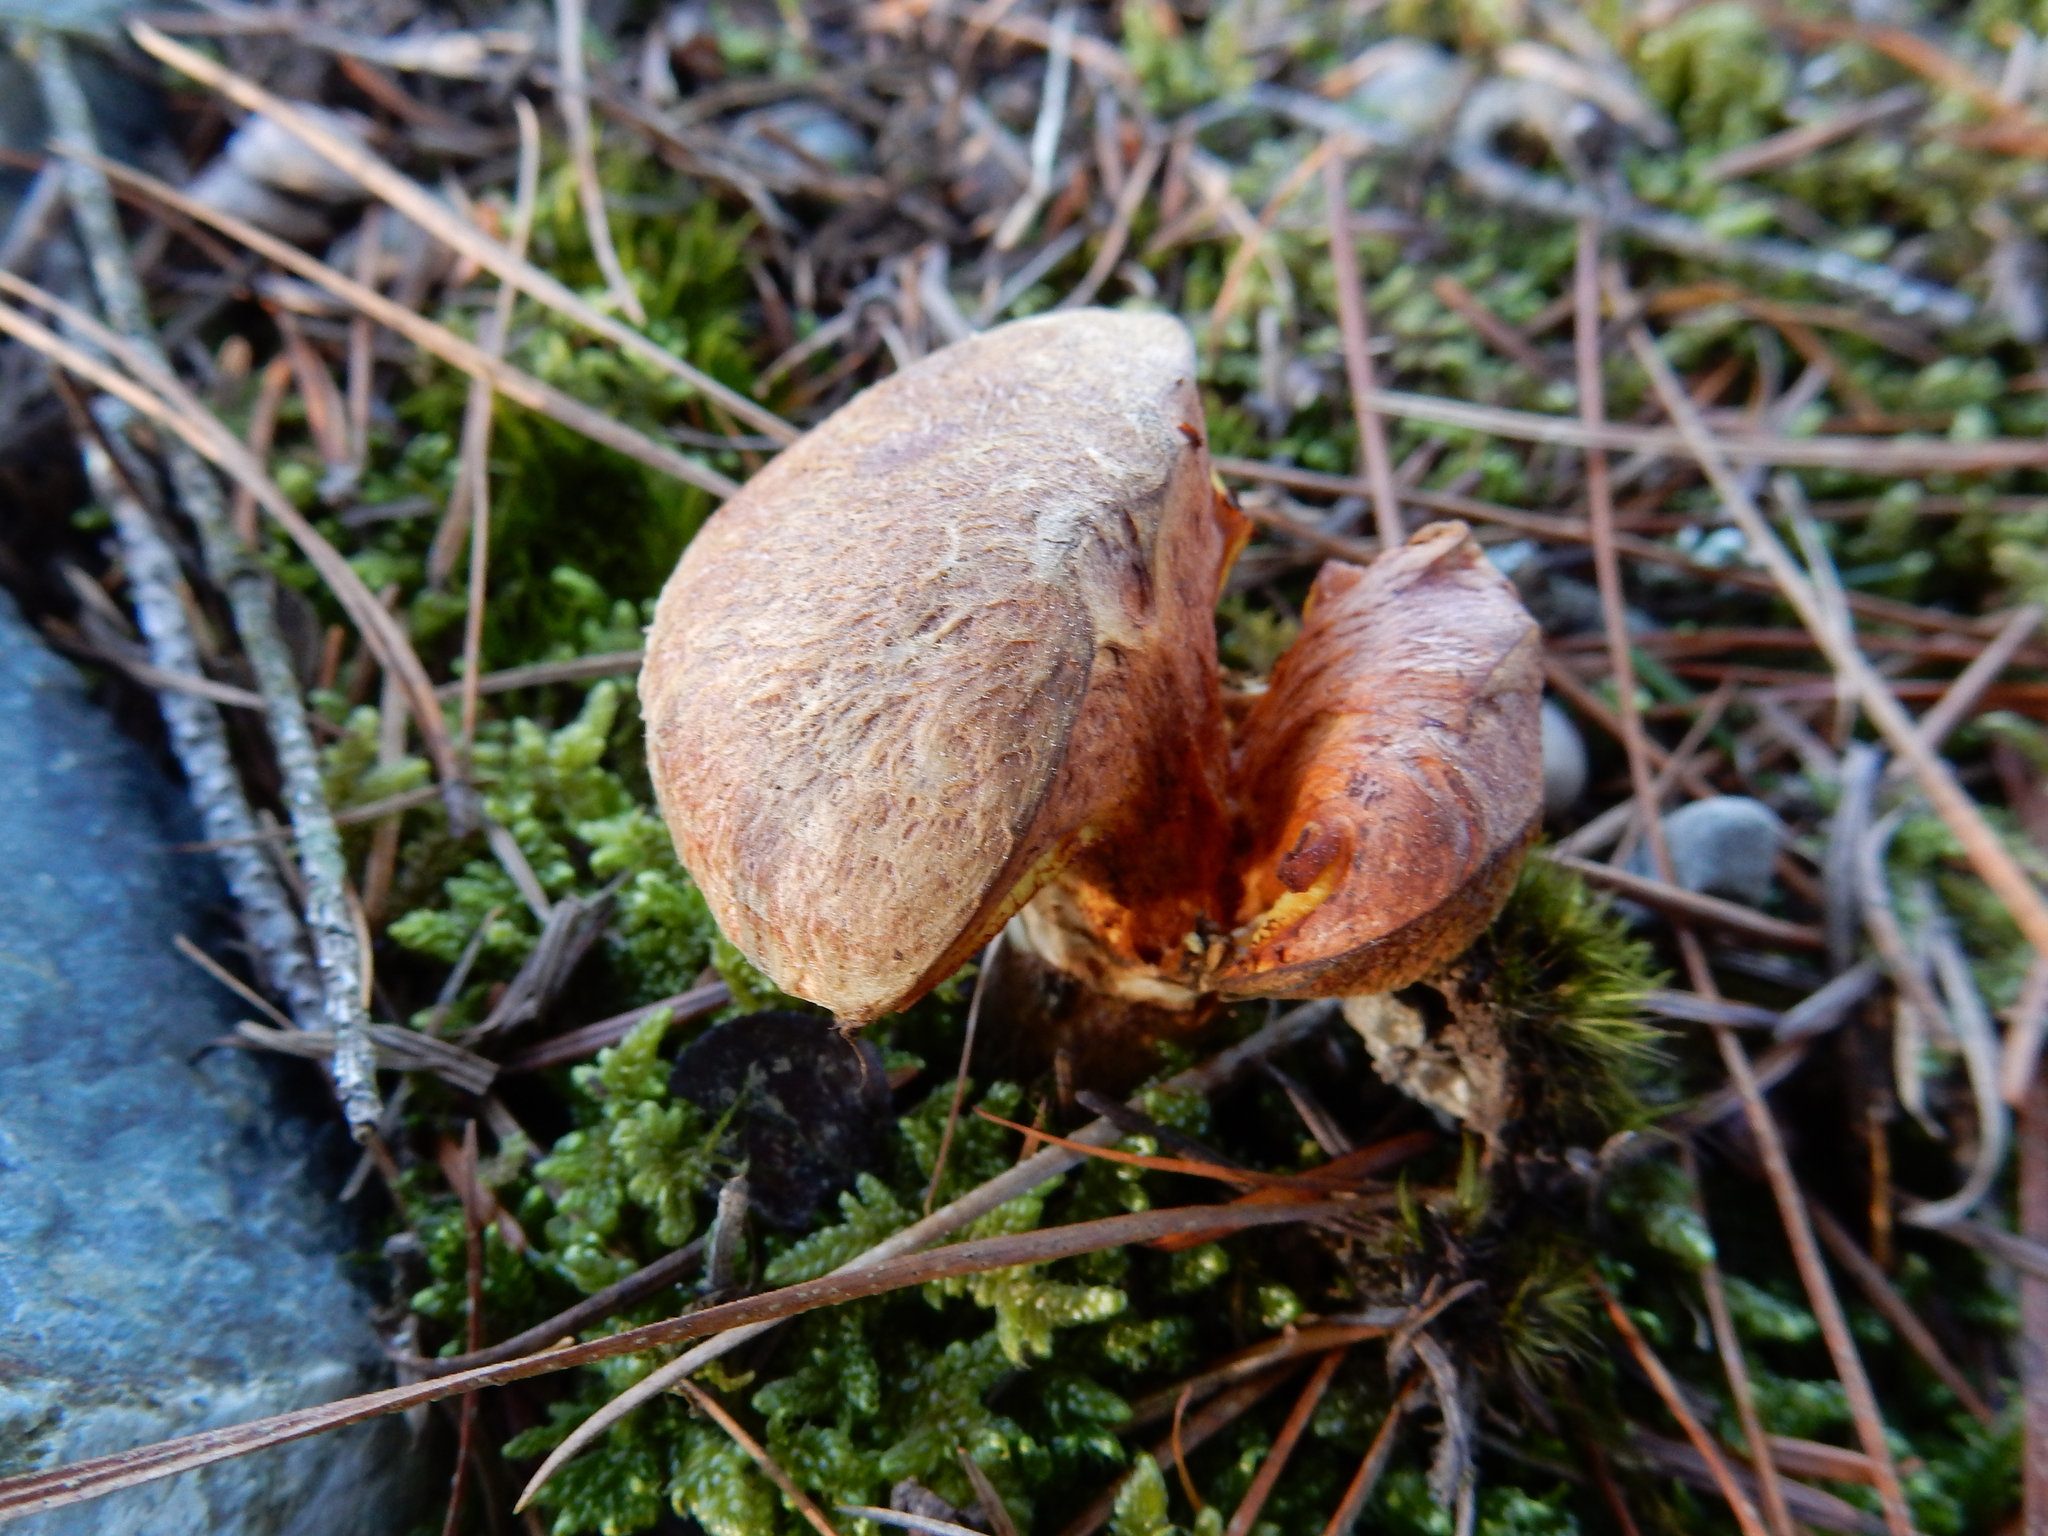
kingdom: Fungi
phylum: Basidiomycota
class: Agaricomycetes
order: Boletales
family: Suillaceae
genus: Suillus
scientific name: Suillus lakei
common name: Western painted suillus
